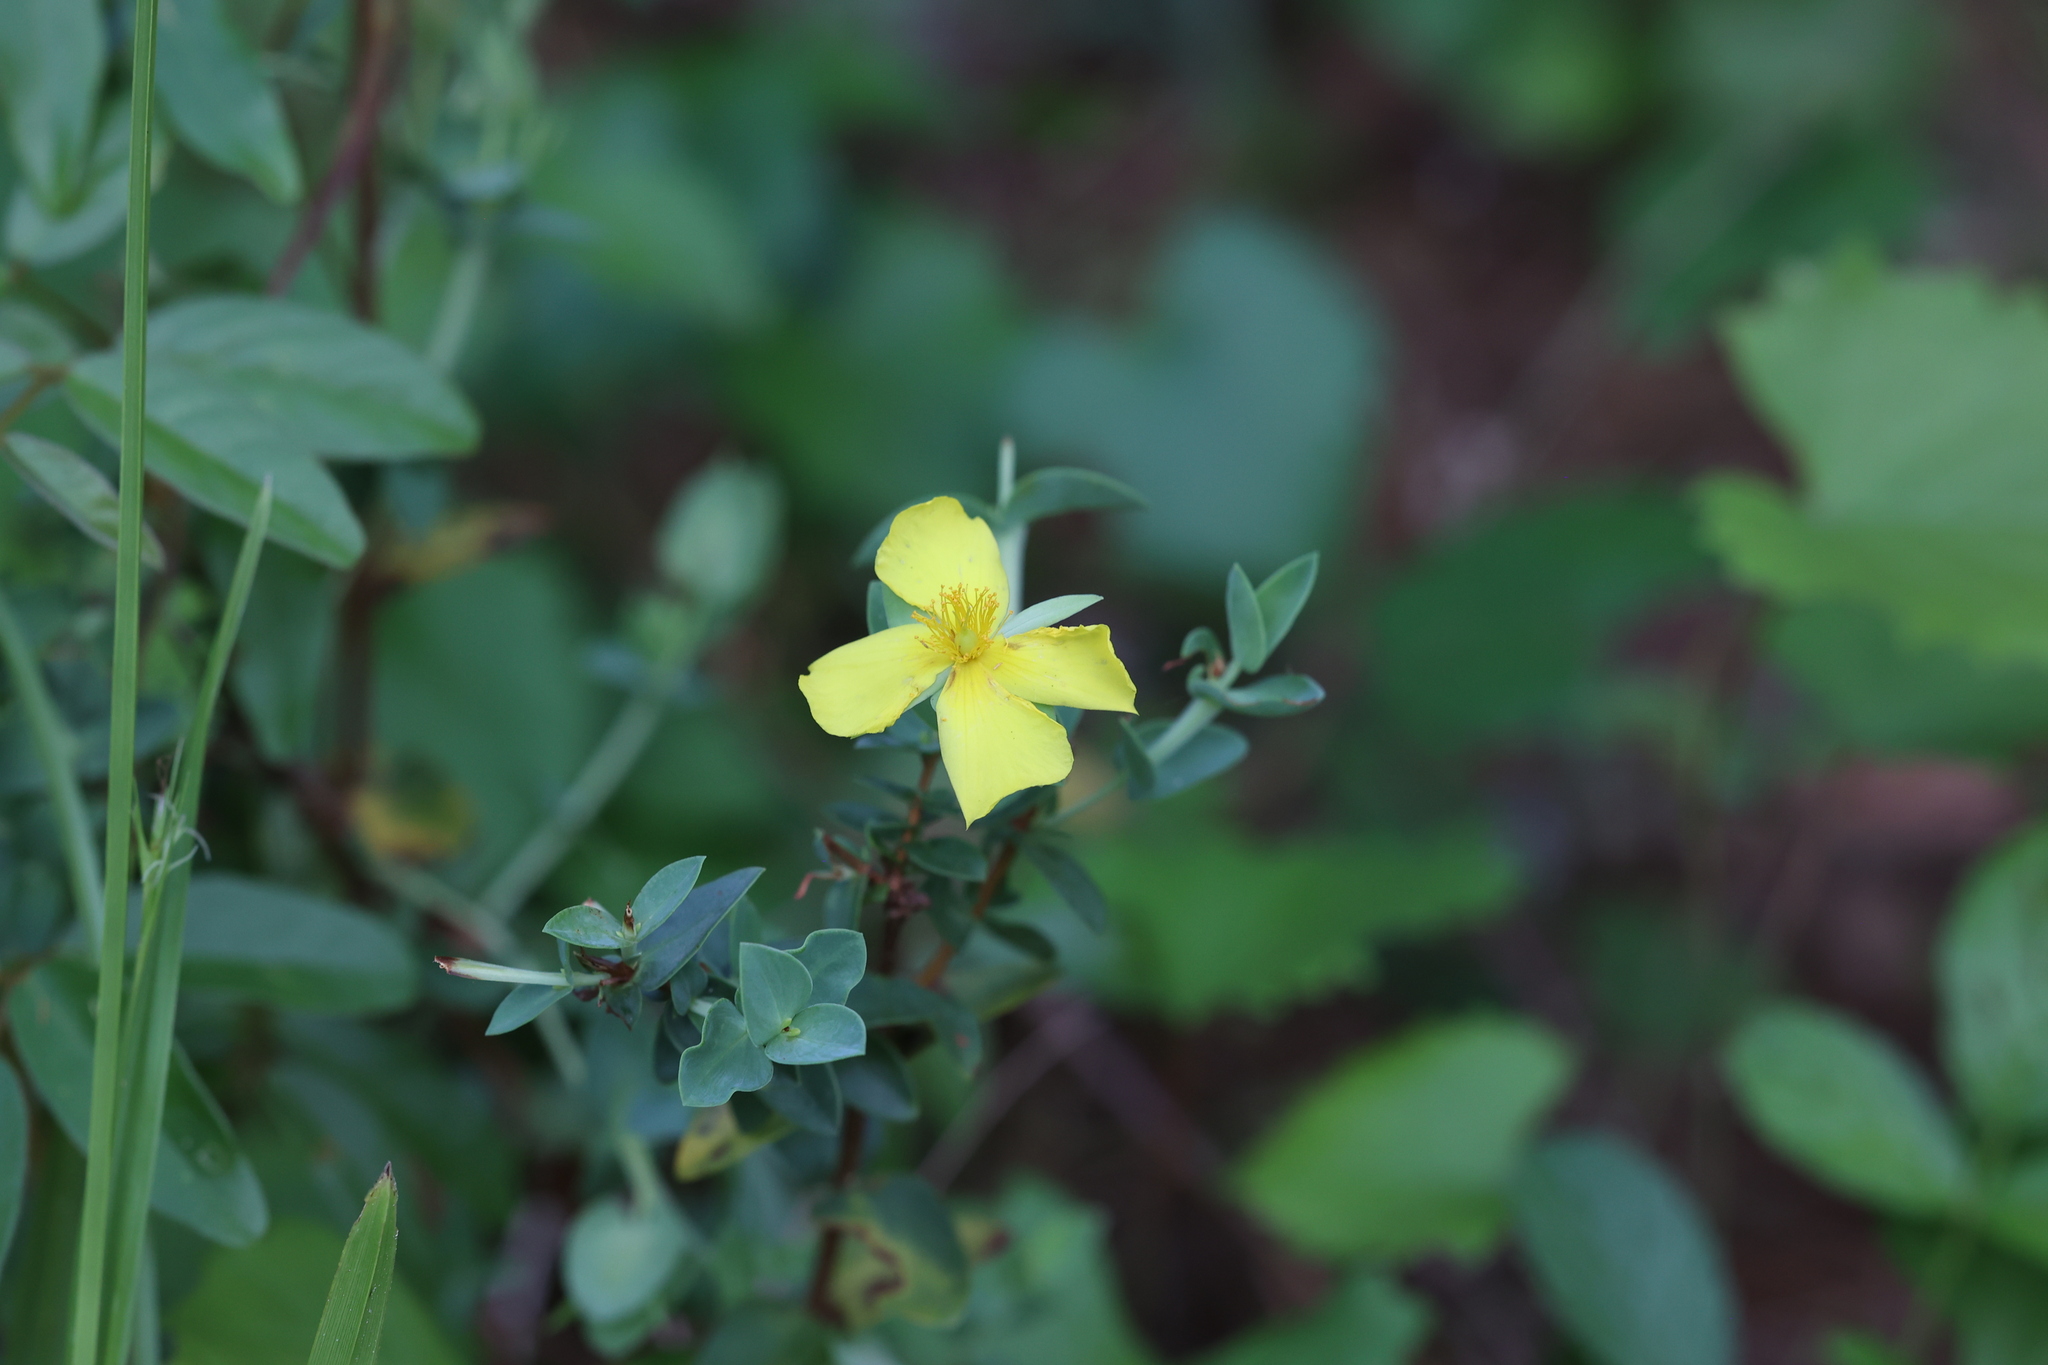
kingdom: Plantae
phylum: Tracheophyta
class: Magnoliopsida
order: Malpighiales
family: Hypericaceae
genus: Hypericum
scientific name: Hypericum tetrapetalum
